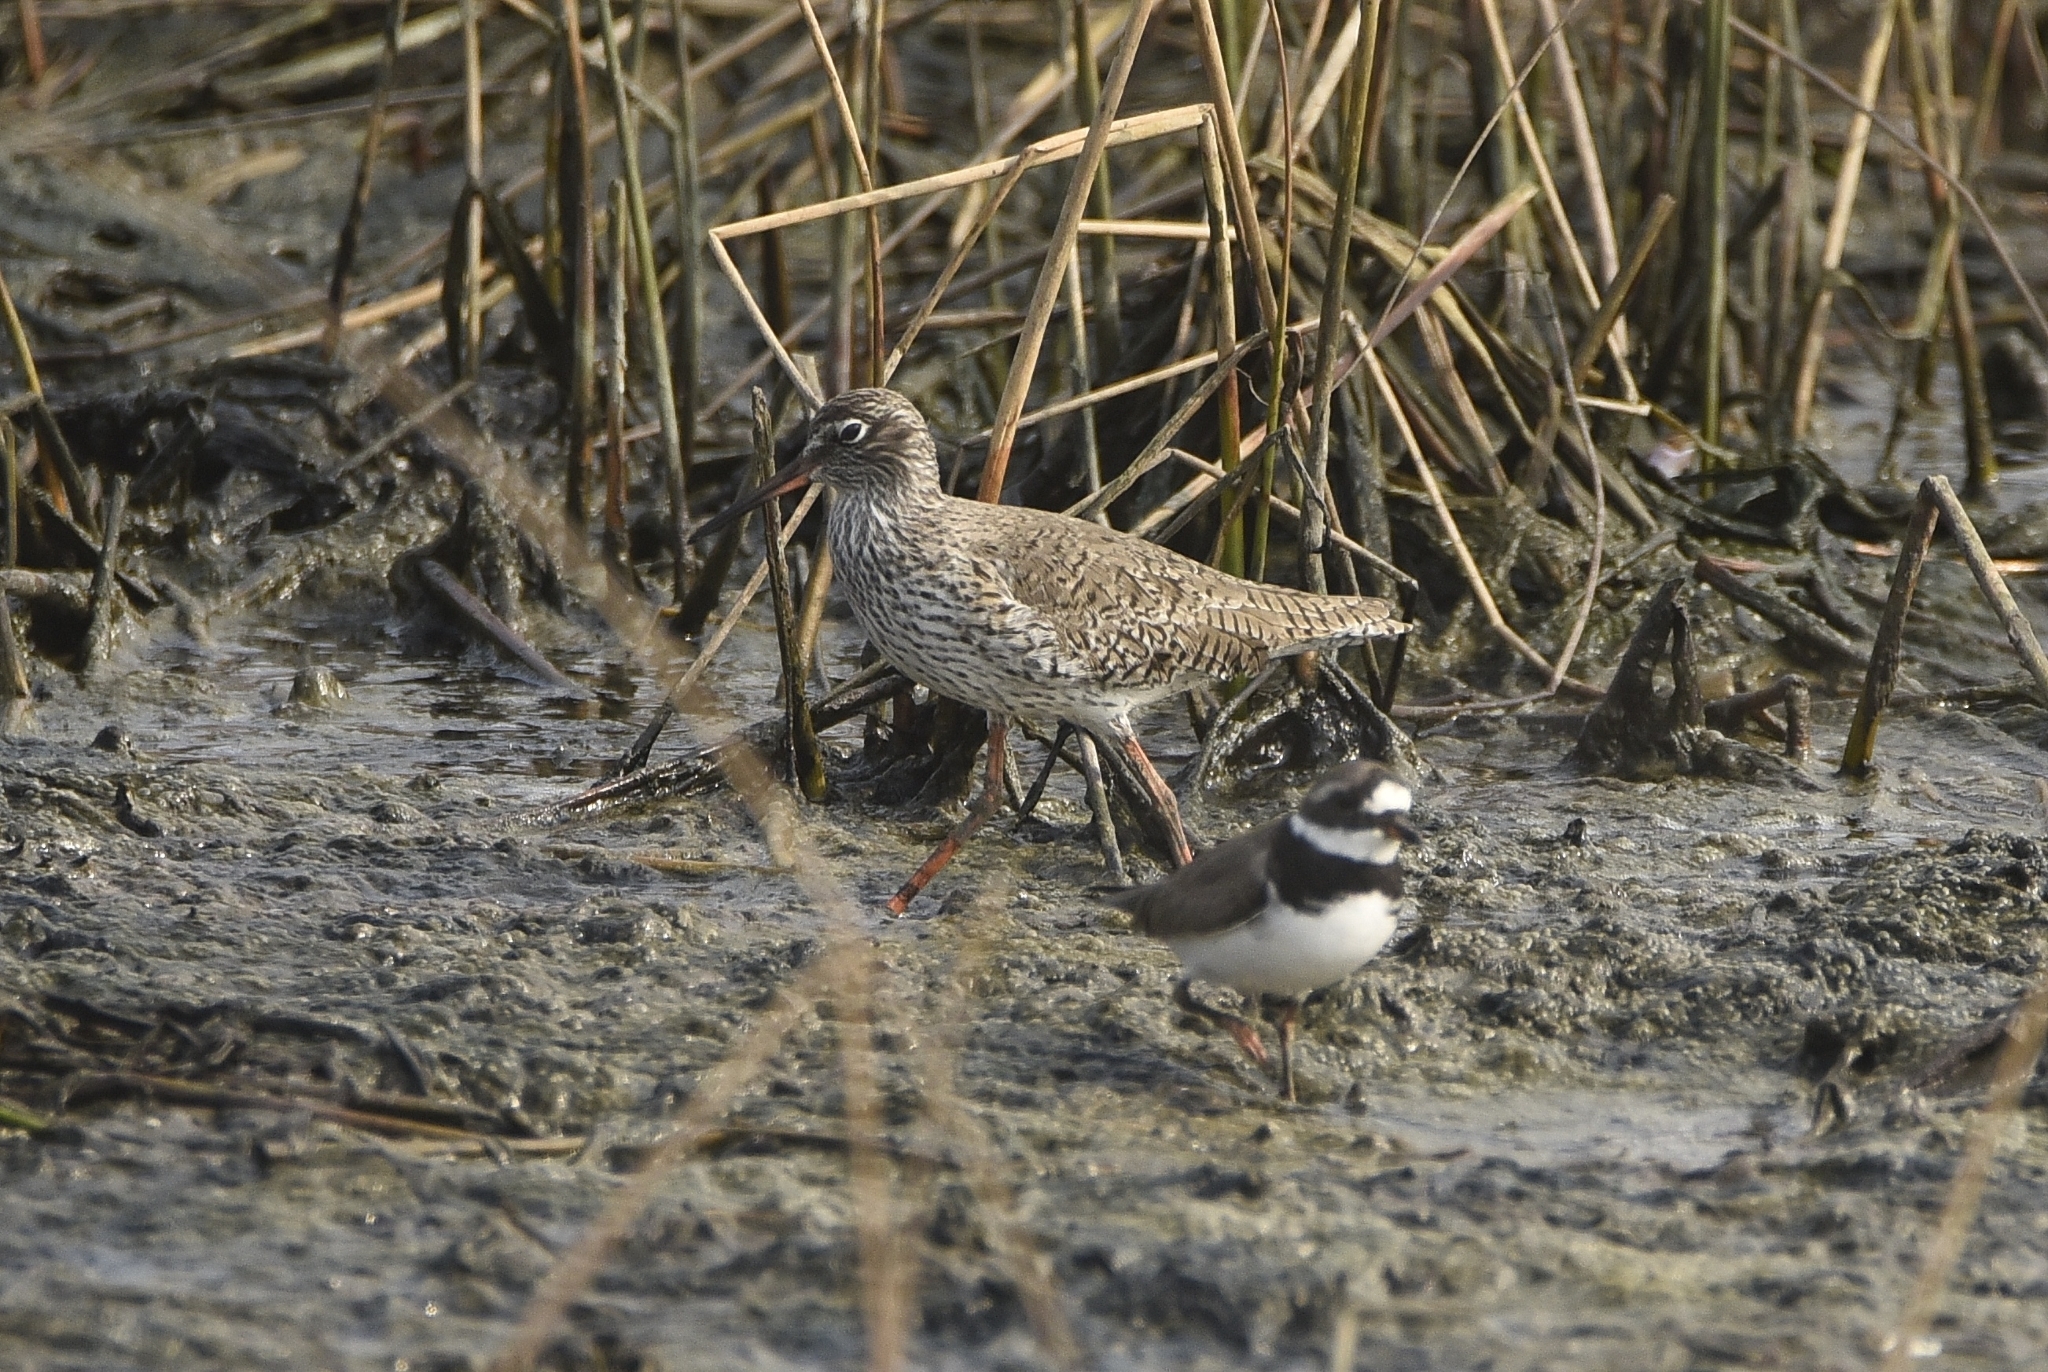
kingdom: Animalia
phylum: Chordata
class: Aves
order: Charadriiformes
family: Scolopacidae
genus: Tringa
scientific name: Tringa totanus
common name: Common redshank
